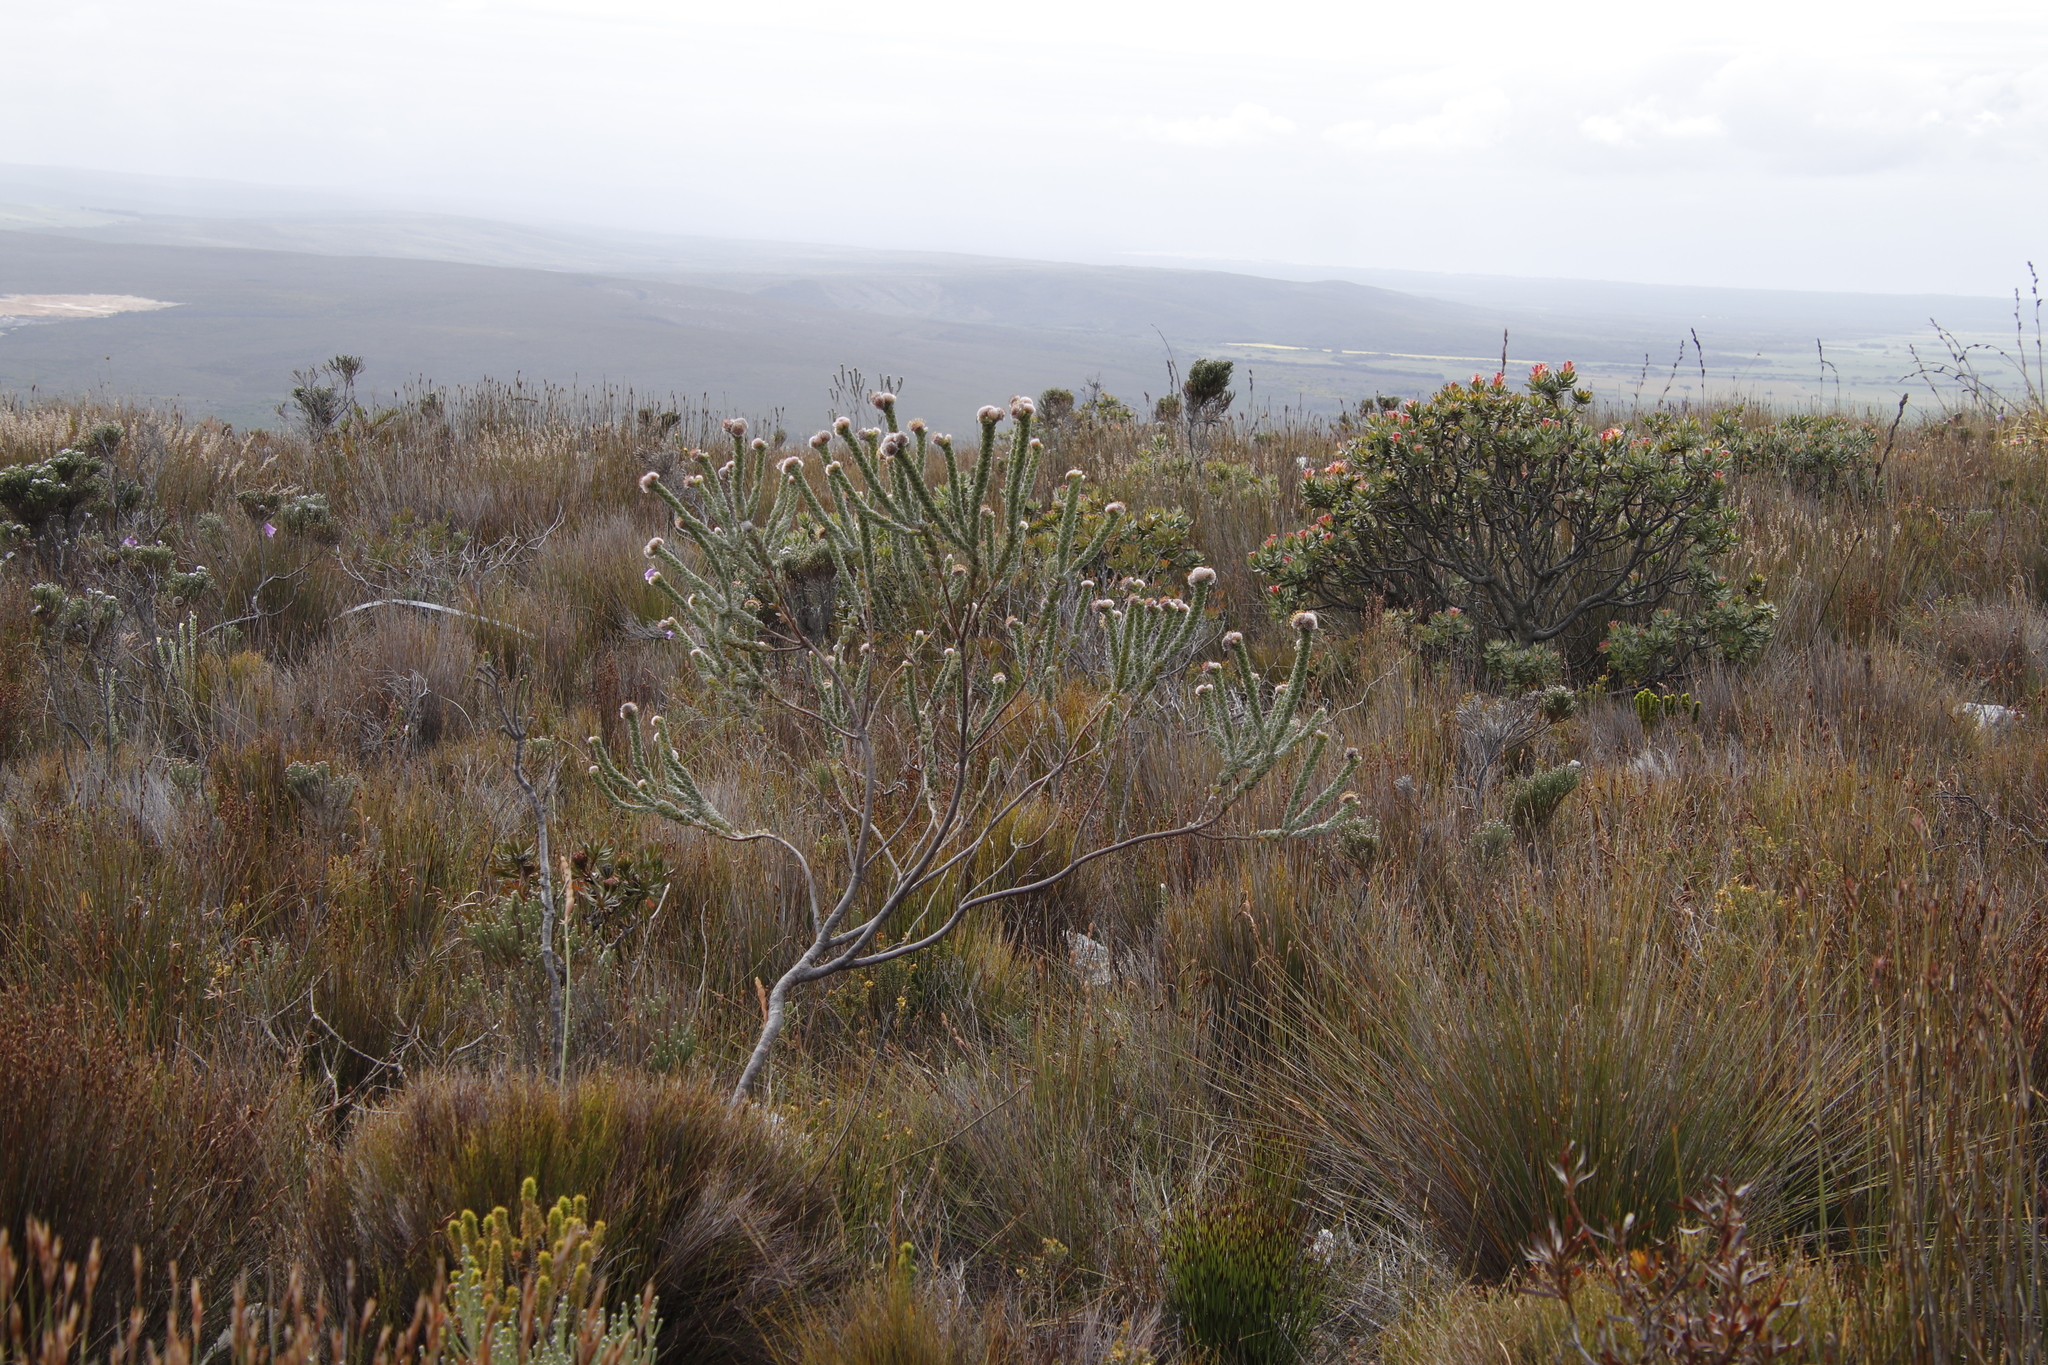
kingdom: Plantae
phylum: Tracheophyta
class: Magnoliopsida
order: Proteales
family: Proteaceae
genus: Leucospermum
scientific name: Leucospermum truncatulum
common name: Oval-leaf pincushion
